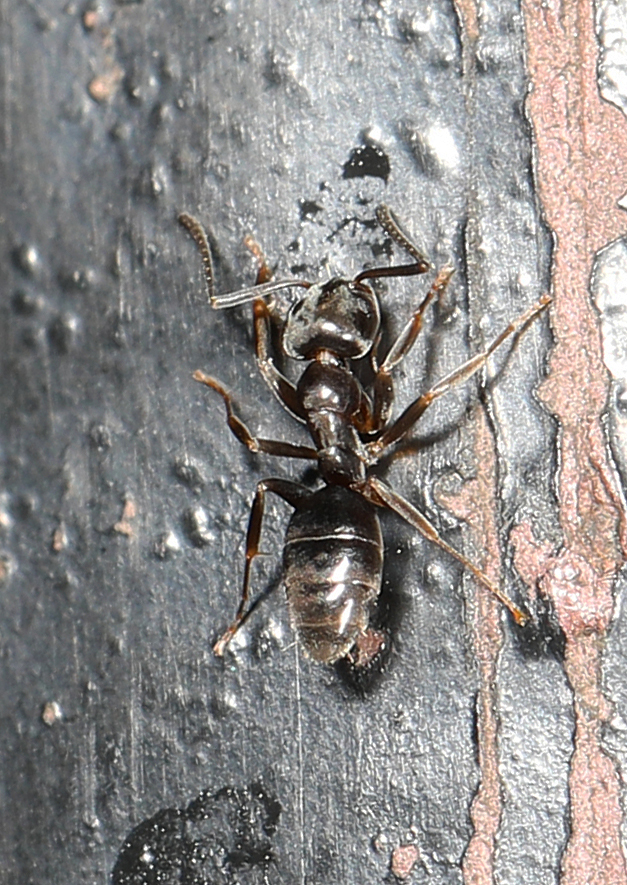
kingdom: Animalia
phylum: Arthropoda
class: Insecta
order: Hymenoptera
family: Formicidae
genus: Tapinoma
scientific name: Tapinoma sessile
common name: Odorous house ant
